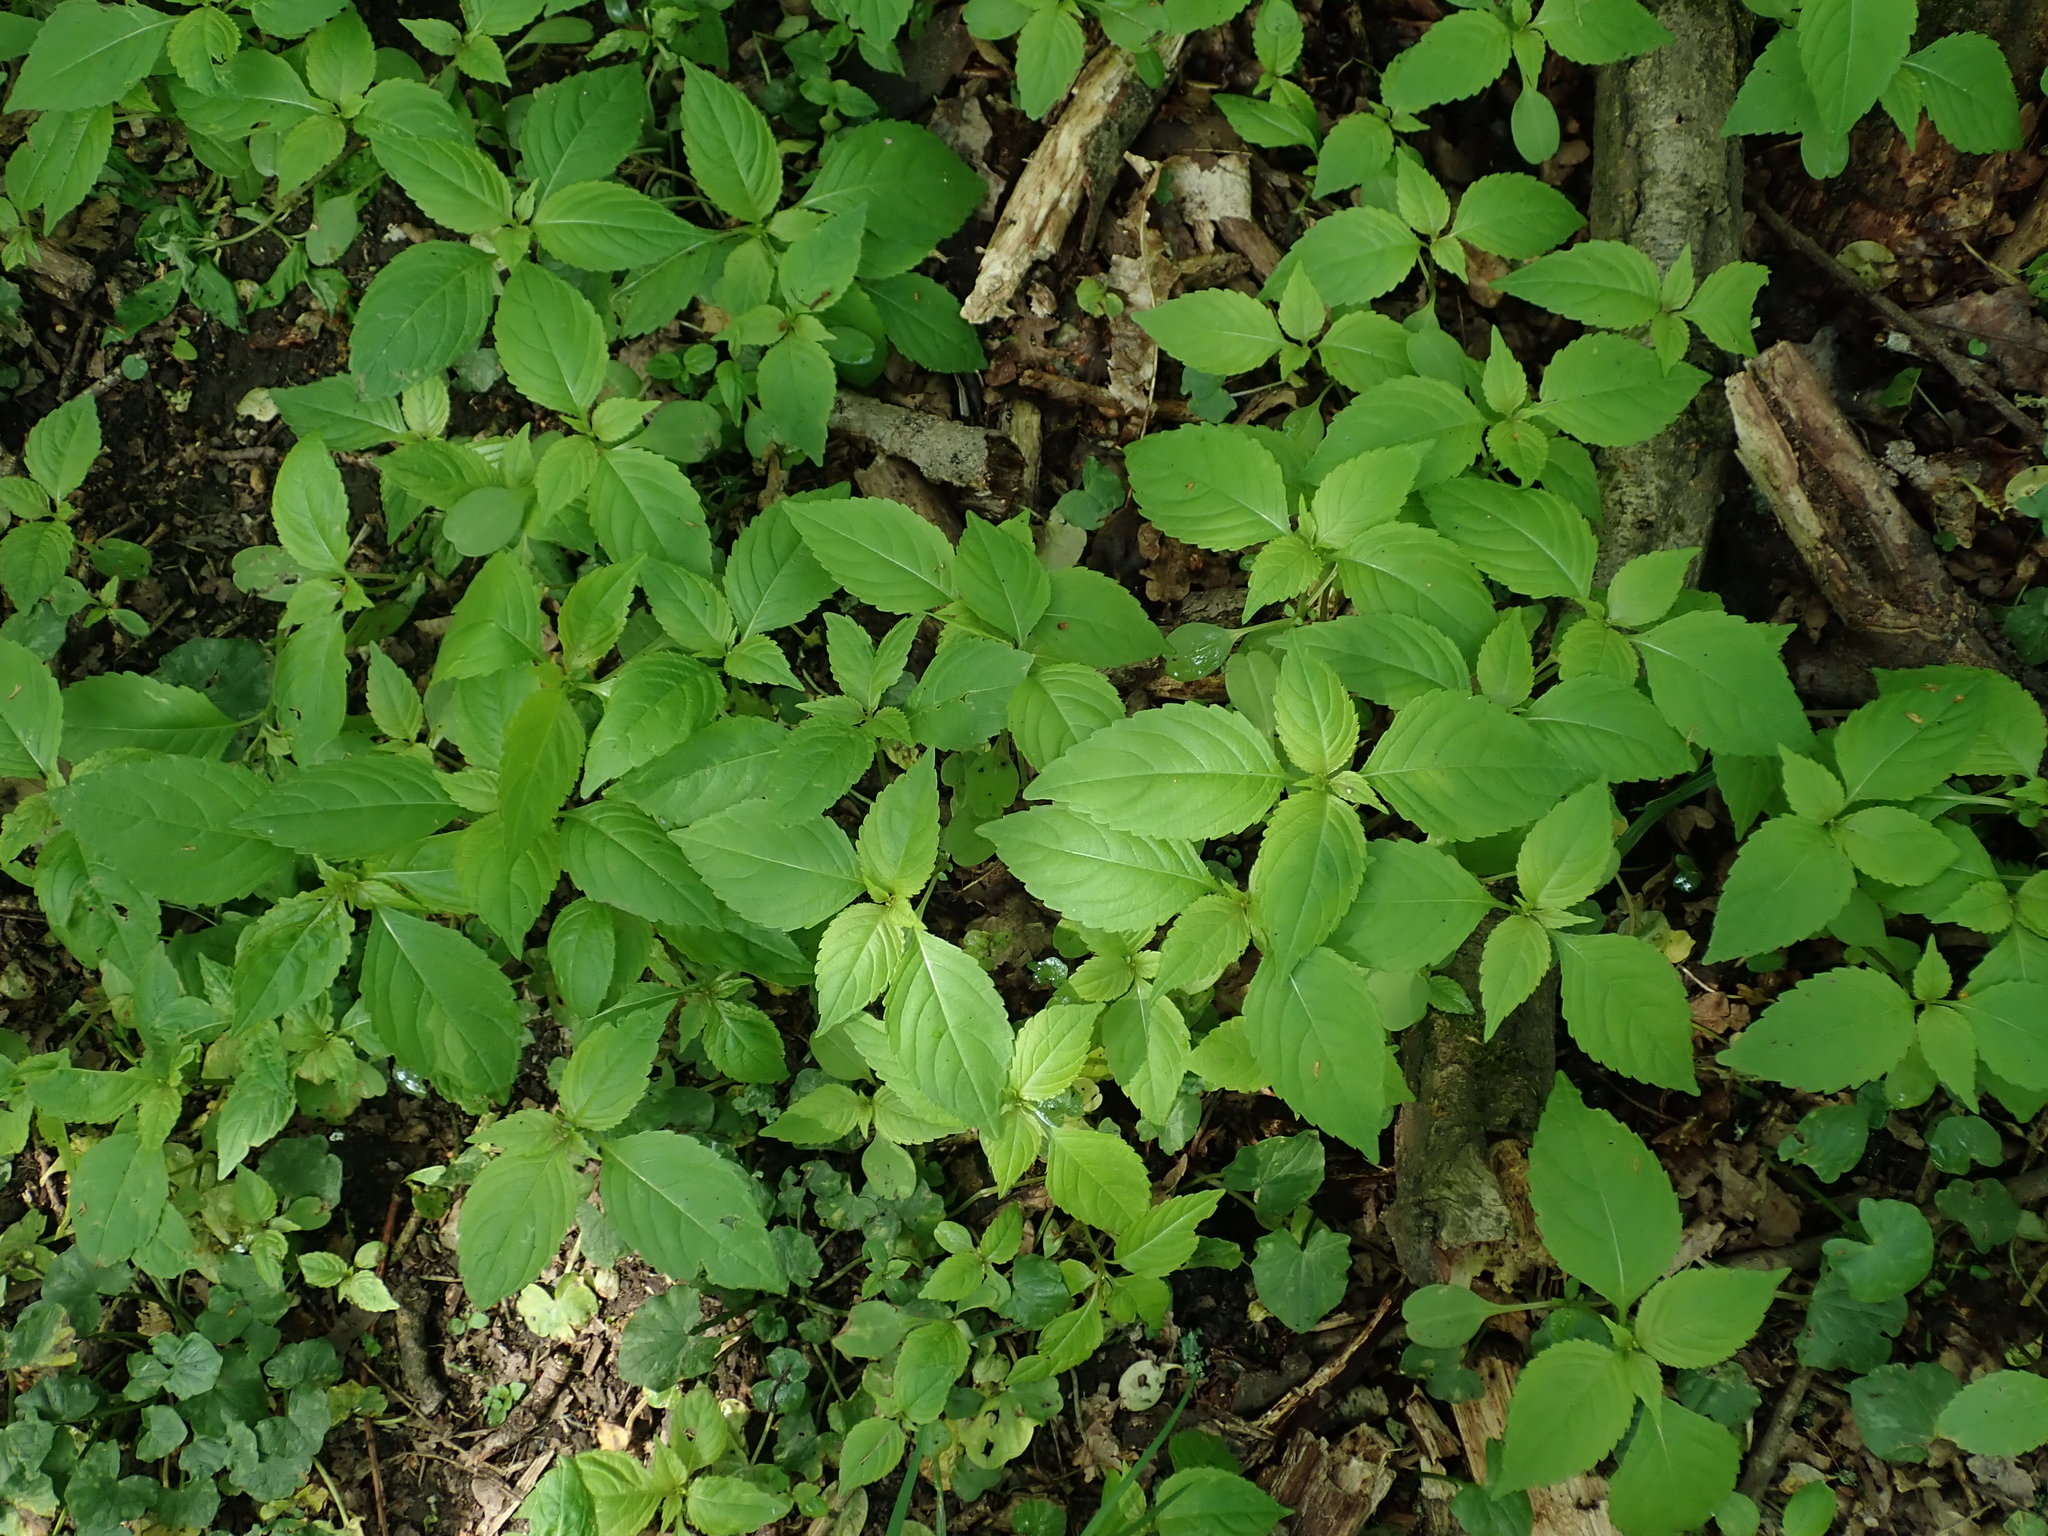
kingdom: Plantae
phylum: Tracheophyta
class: Magnoliopsida
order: Ericales
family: Balsaminaceae
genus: Impatiens
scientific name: Impatiens parviflora
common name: Small balsam
